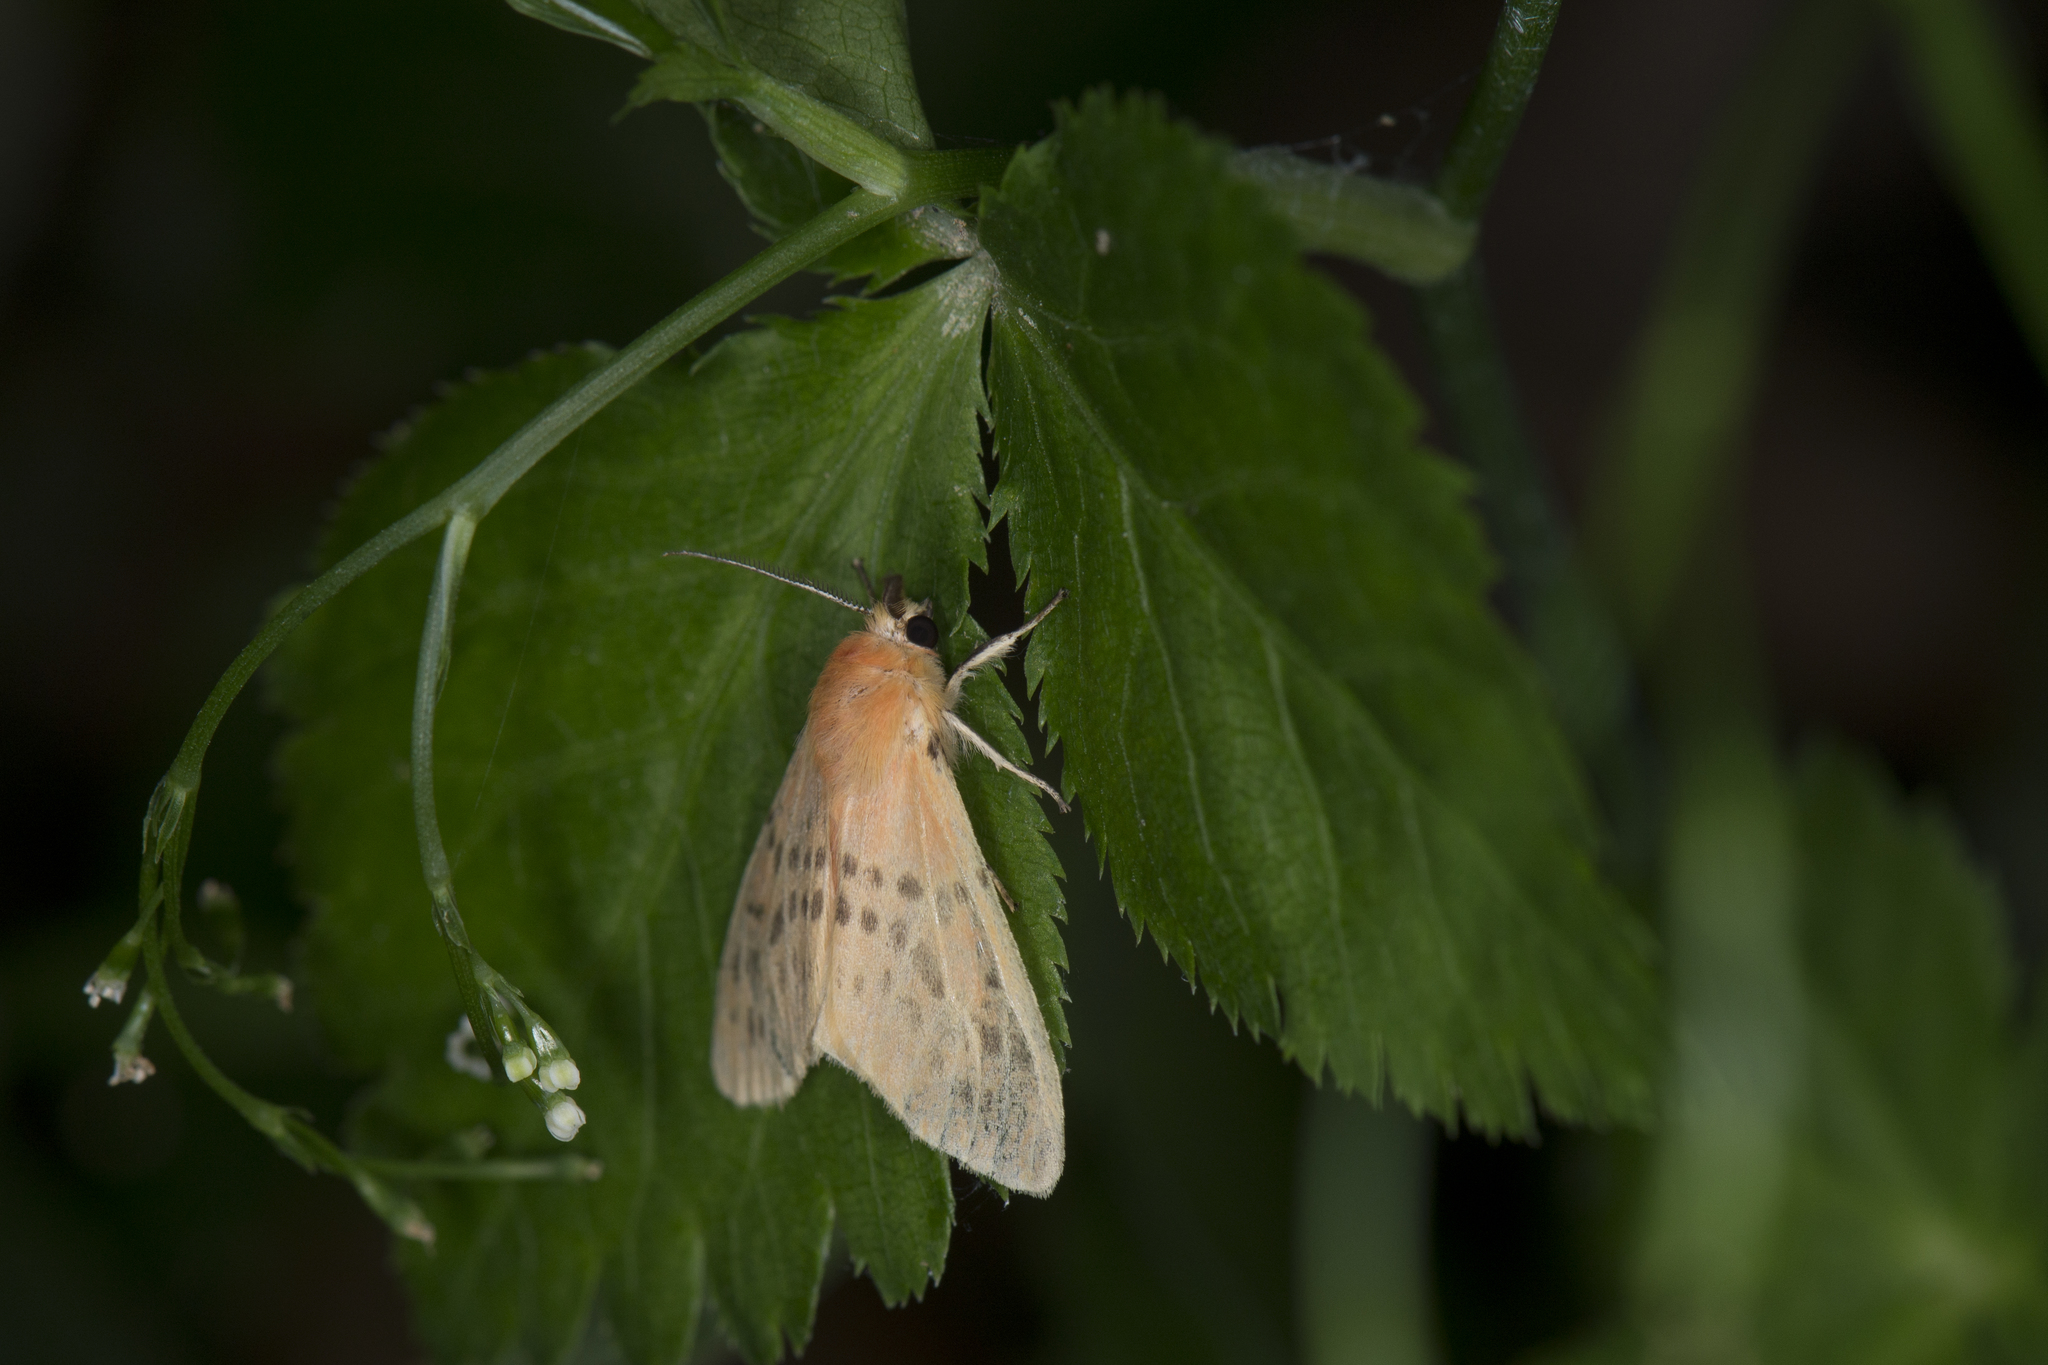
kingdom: Animalia
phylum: Arthropoda
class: Insecta
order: Lepidoptera
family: Erebidae
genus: Lemyra
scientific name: Lemyra alikangensis
